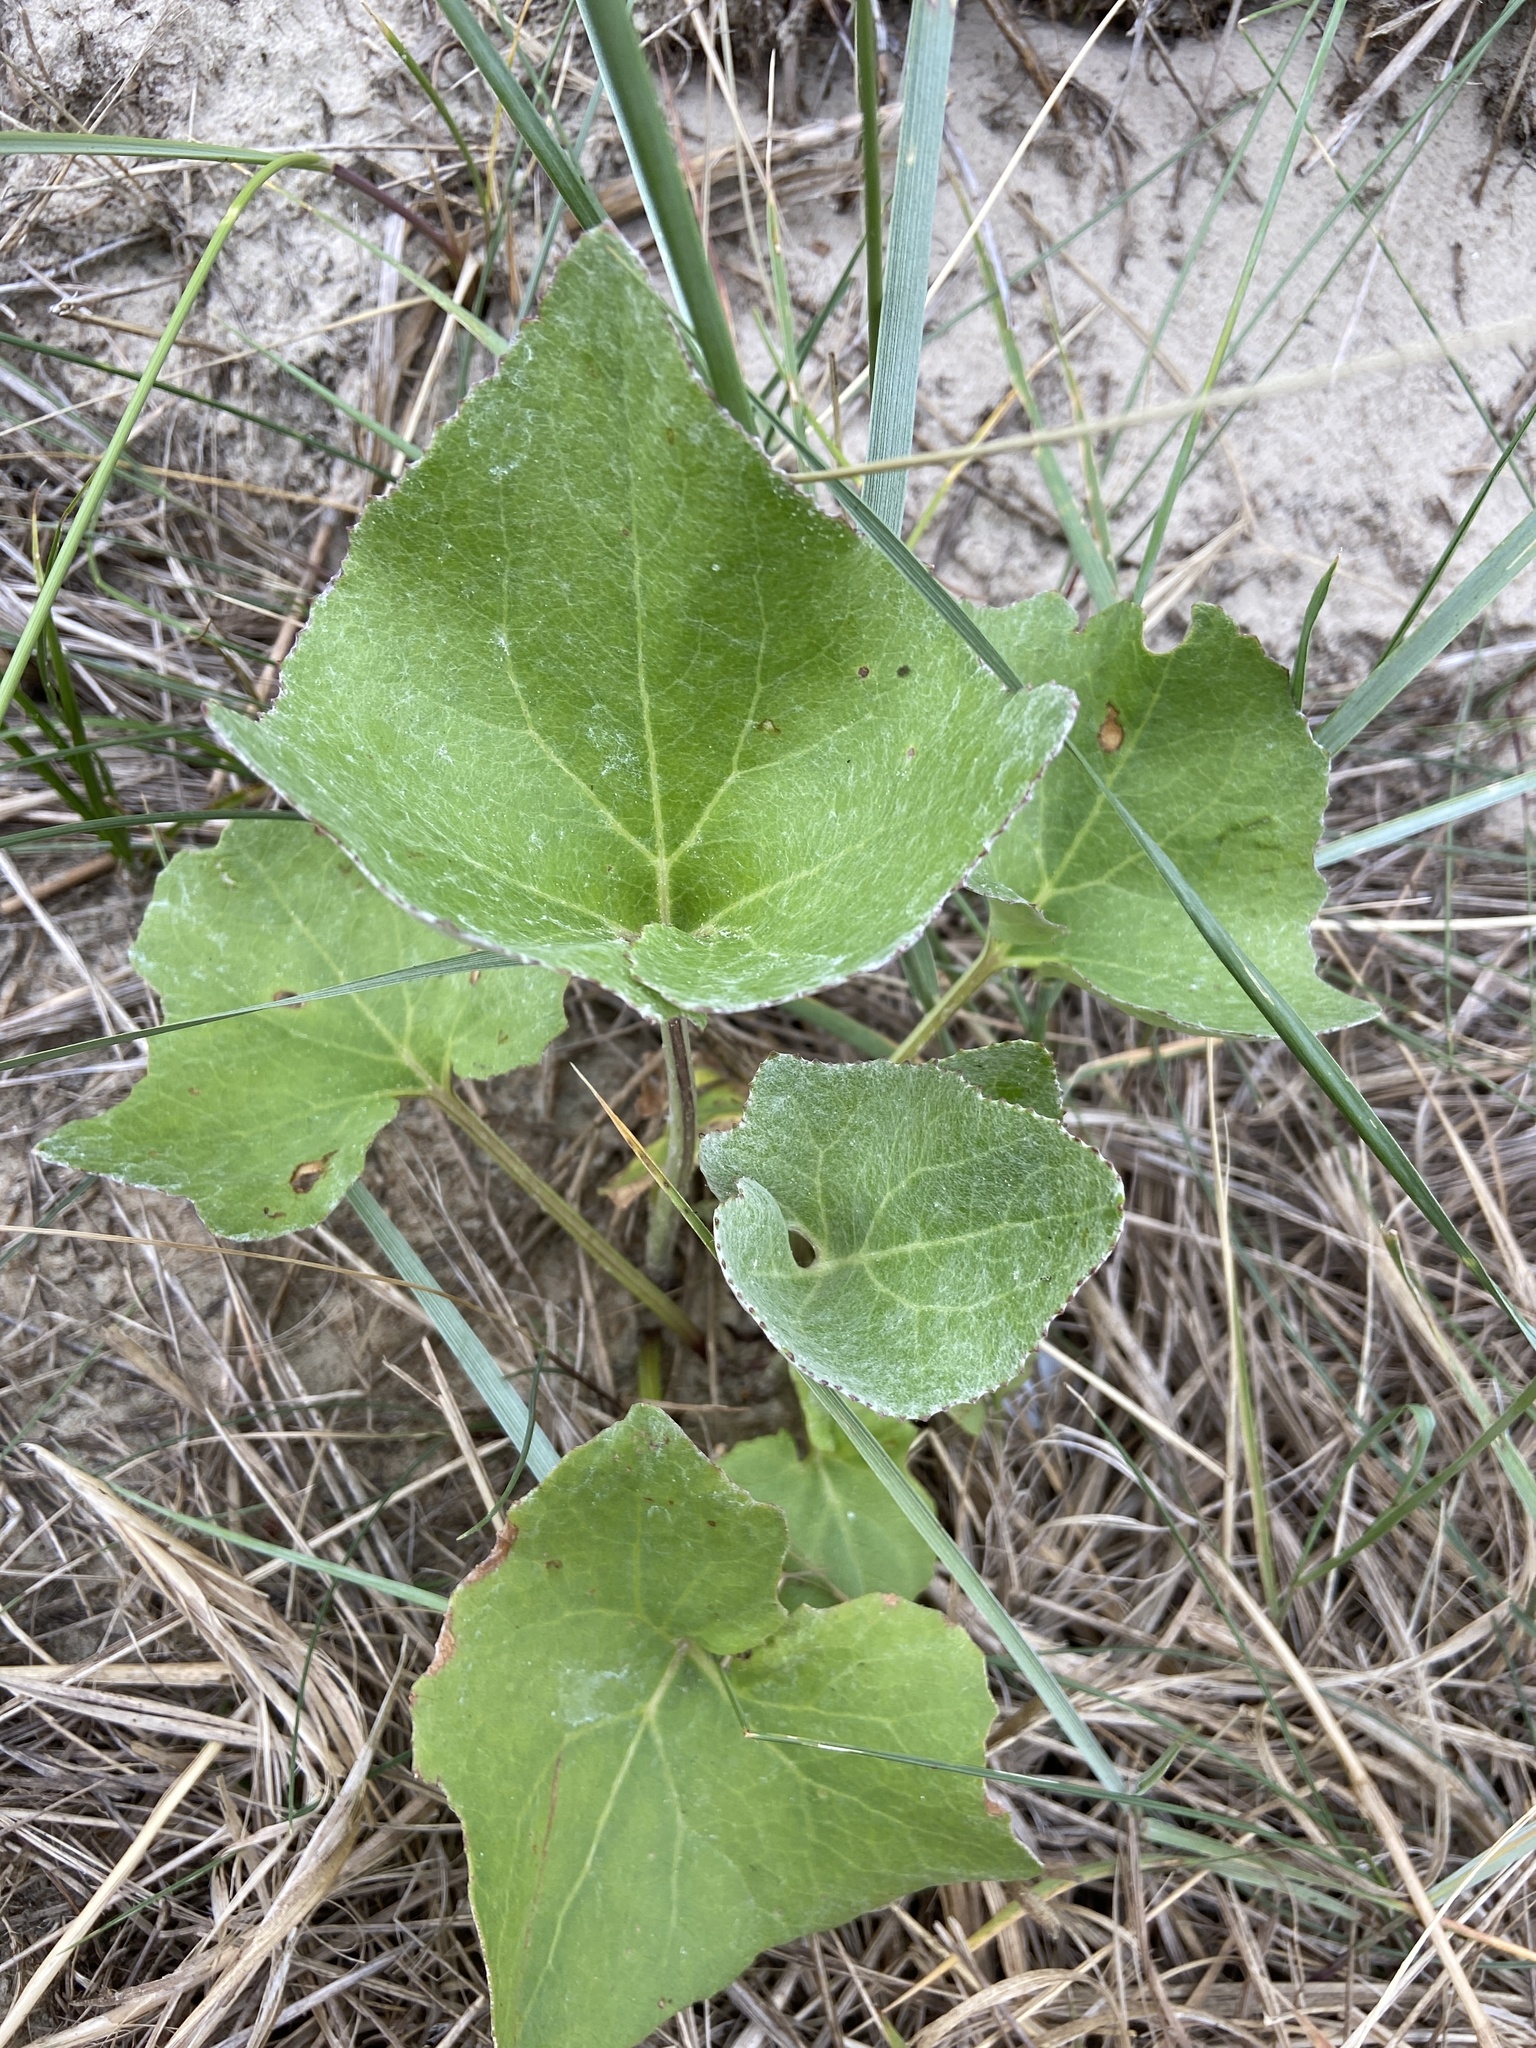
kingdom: Plantae
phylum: Tracheophyta
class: Magnoliopsida
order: Asterales
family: Asteraceae
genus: Petasites
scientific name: Petasites spurius
